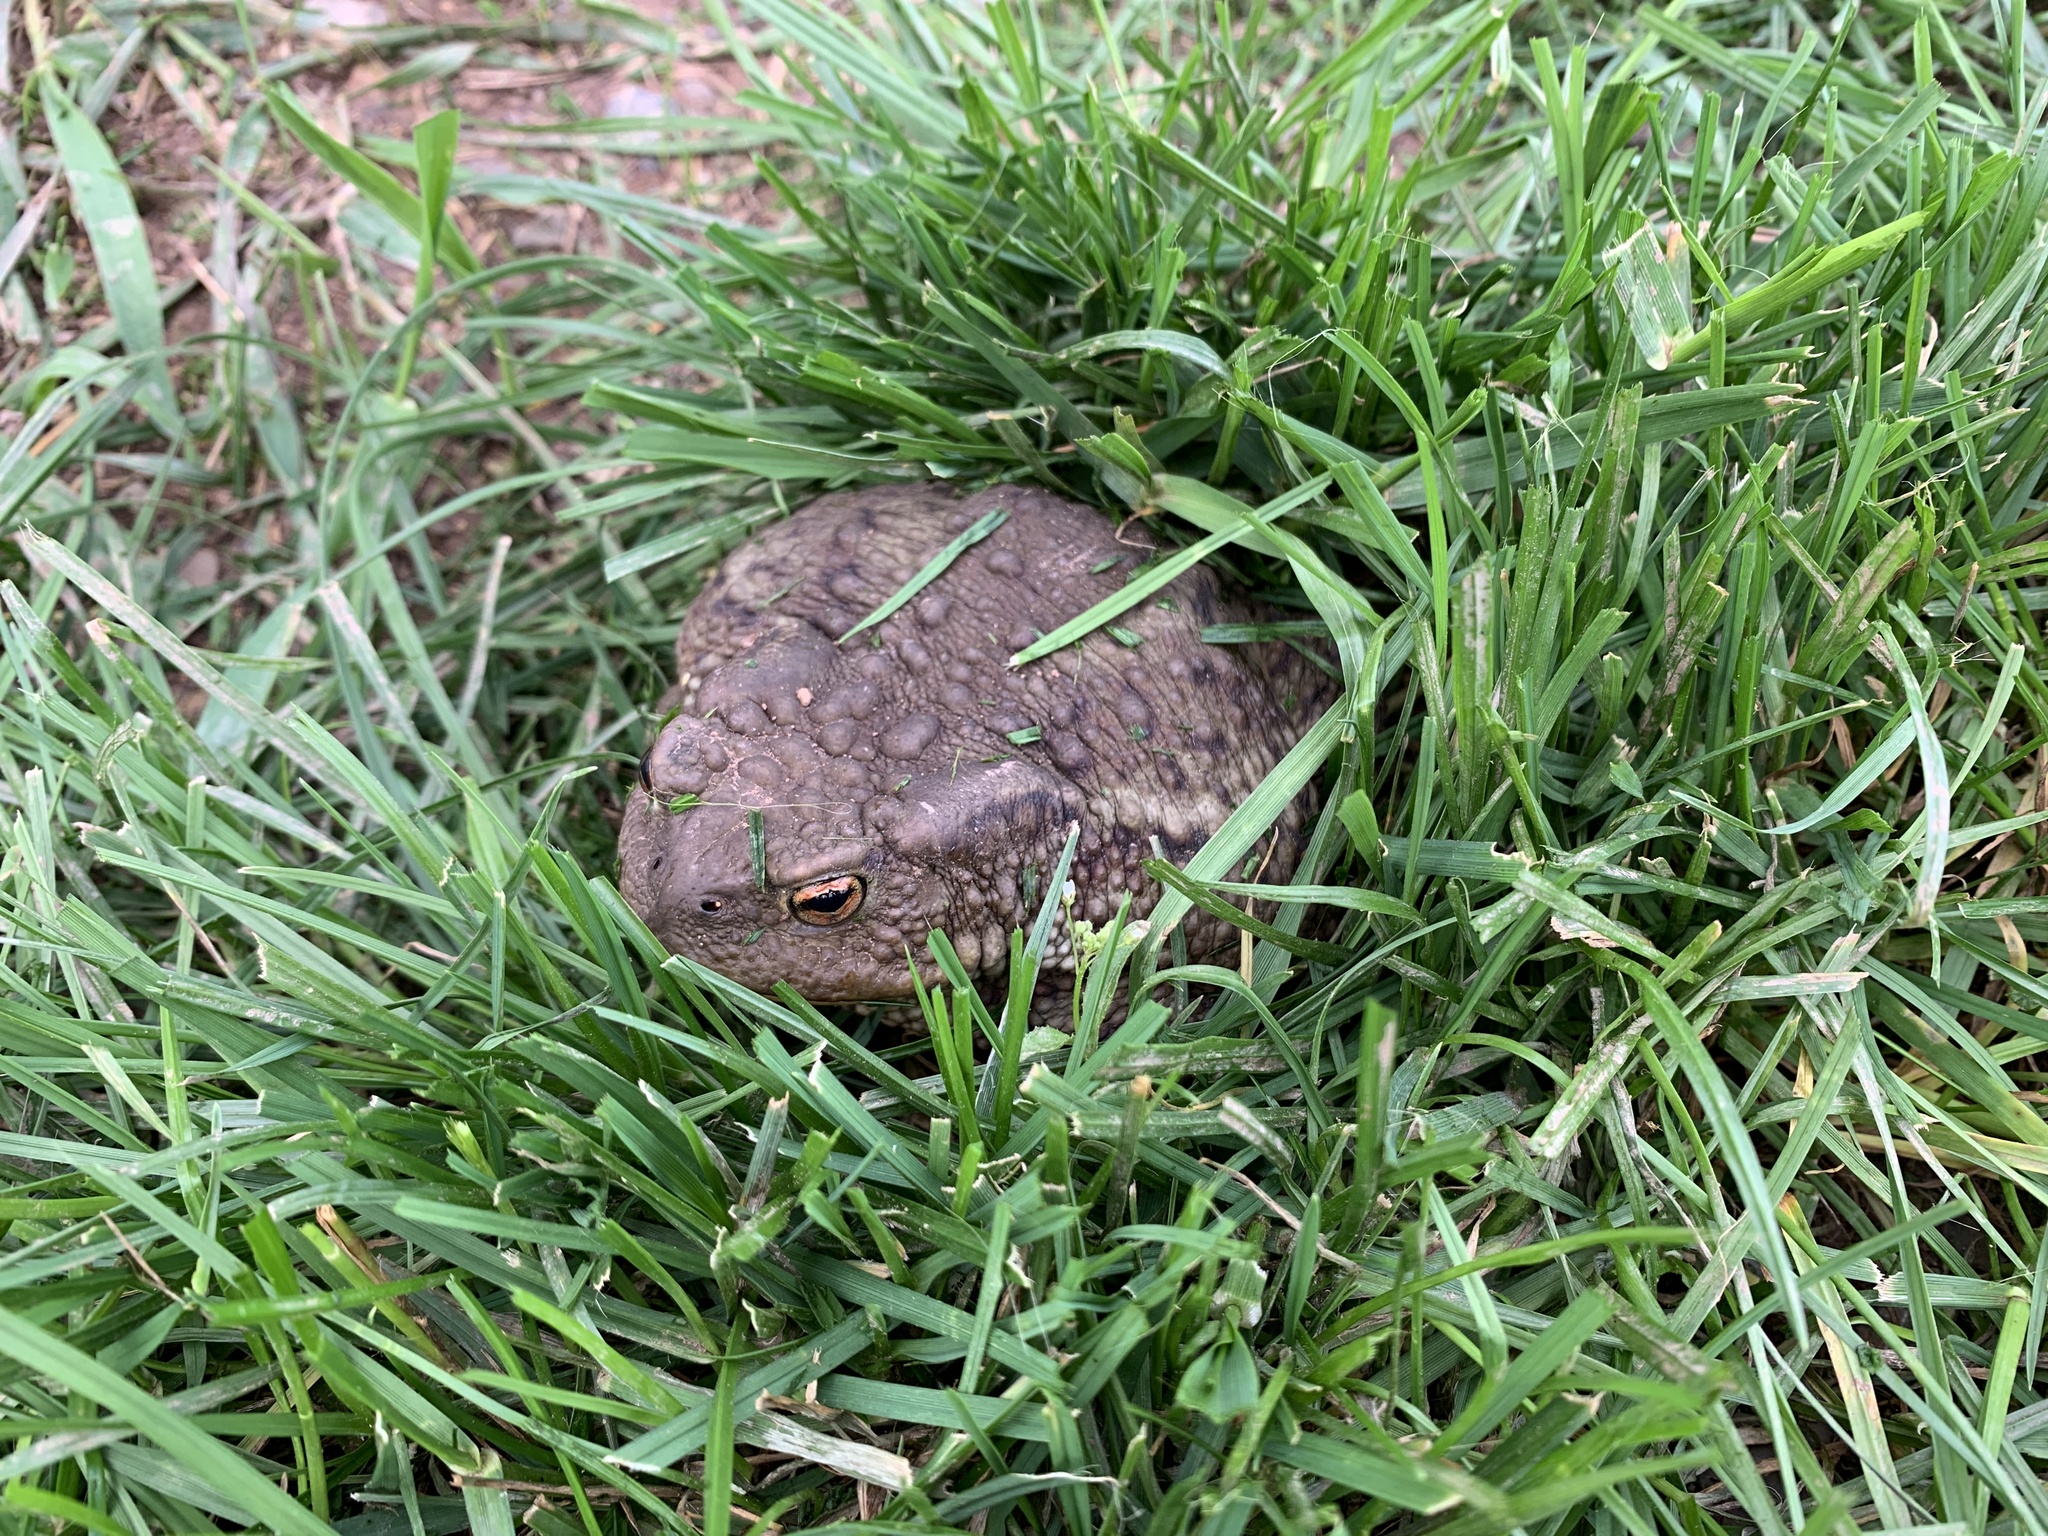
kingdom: Animalia
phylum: Chordata
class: Amphibia
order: Anura
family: Bufonidae
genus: Bufo
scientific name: Bufo bufo
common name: Common toad
